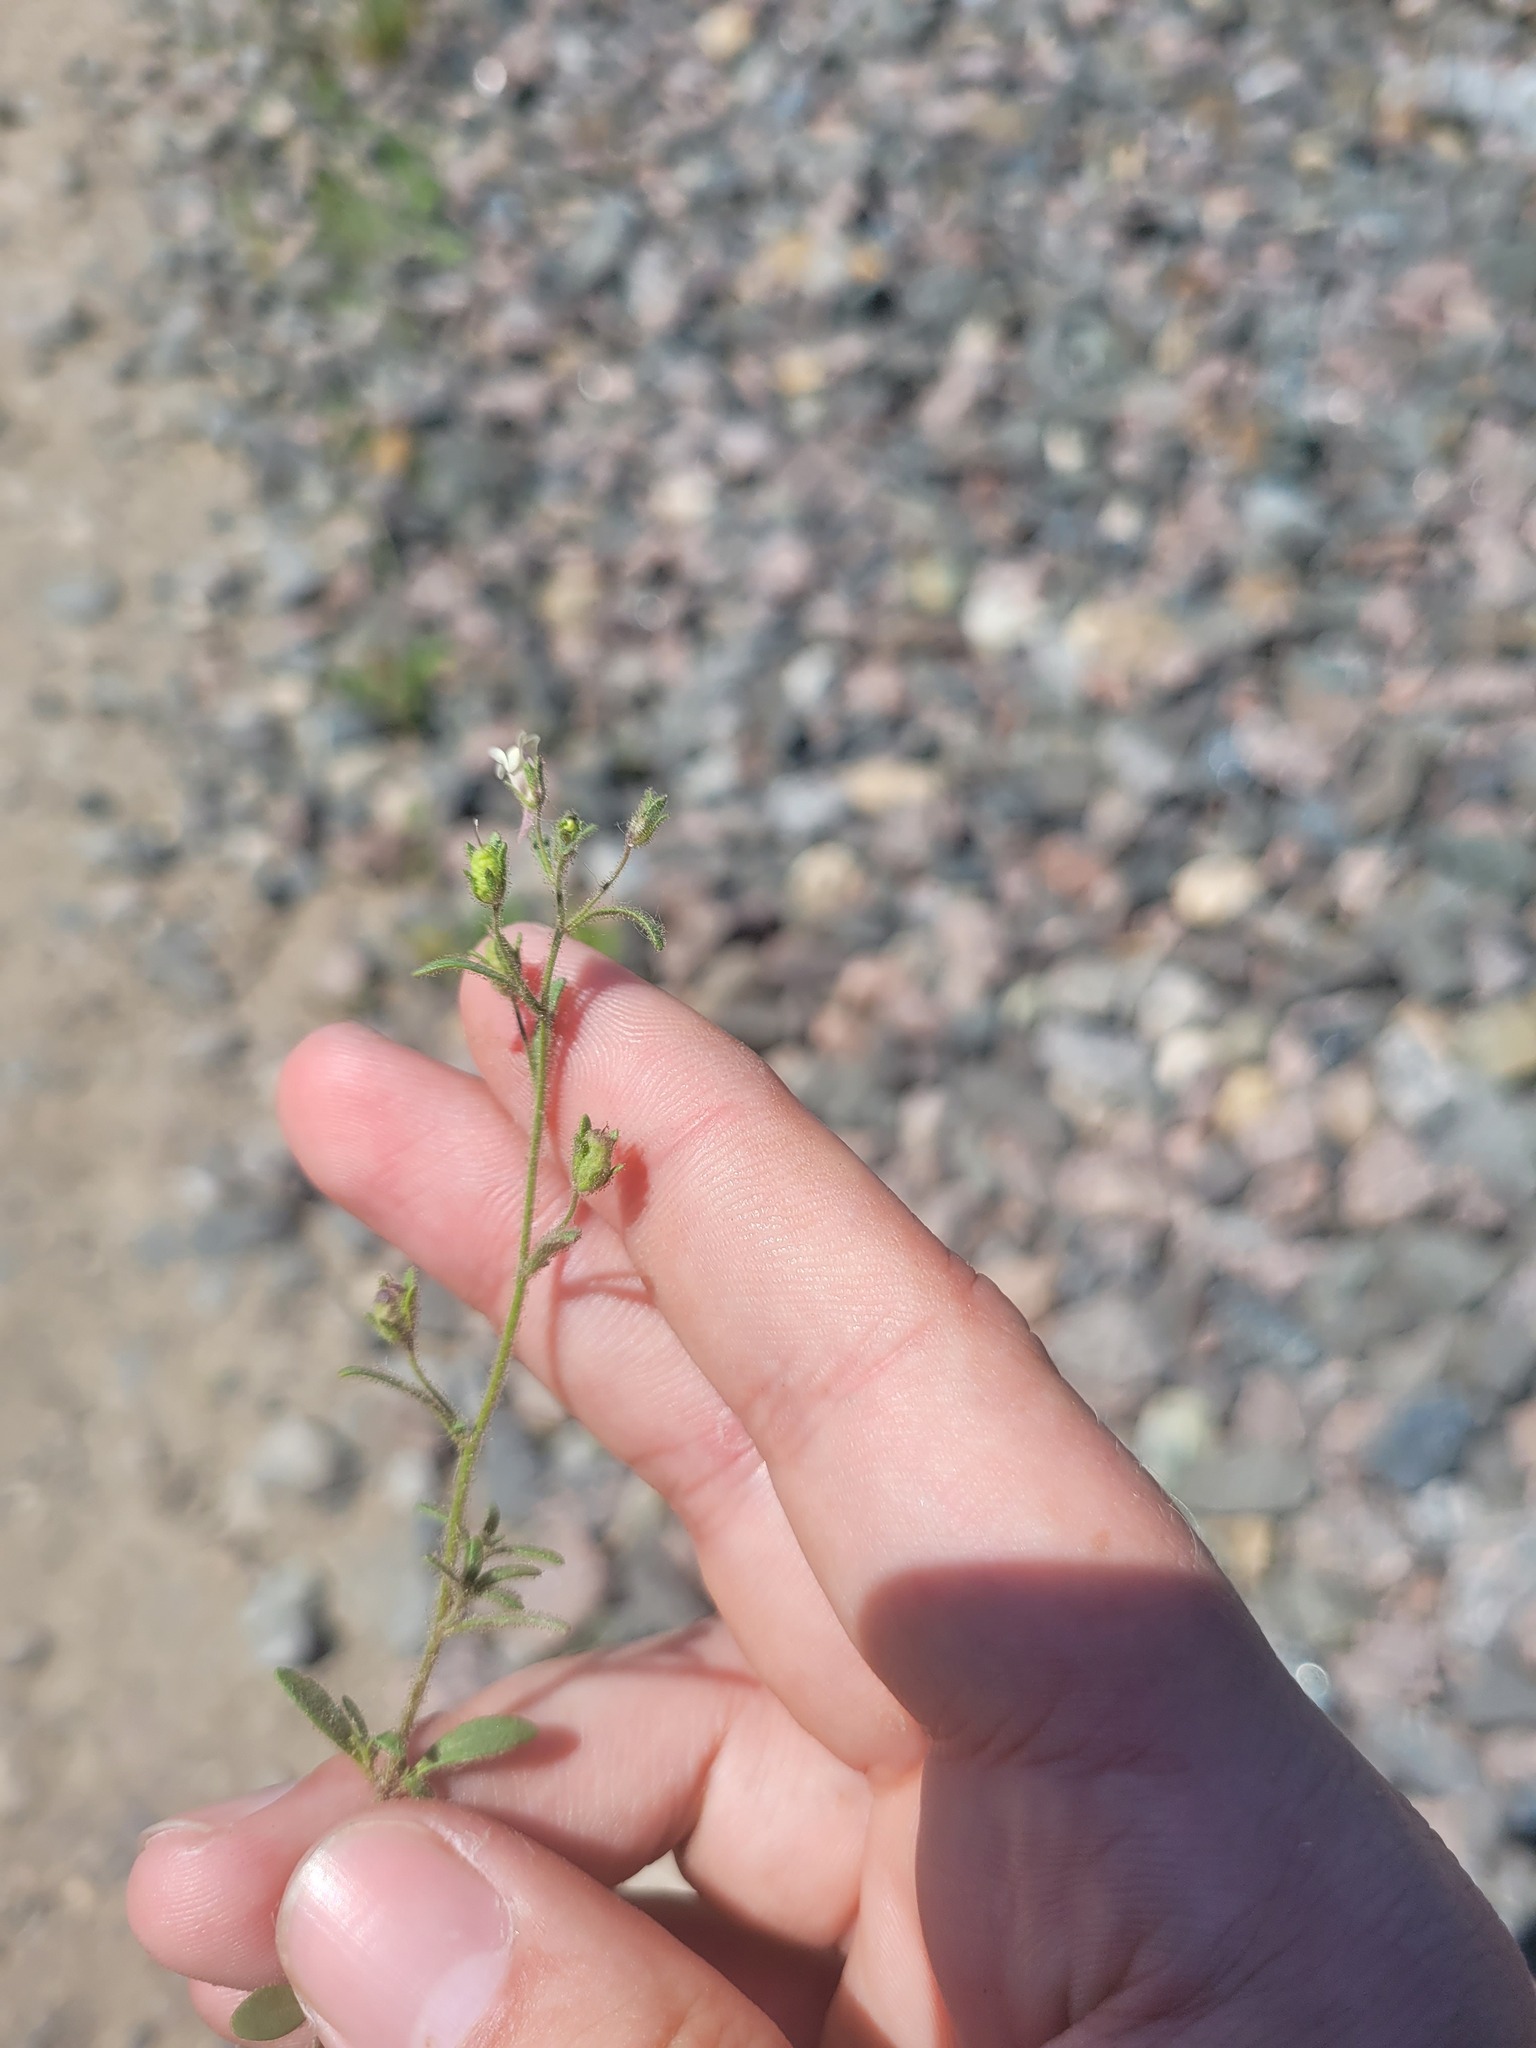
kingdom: Plantae
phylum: Tracheophyta
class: Magnoliopsida
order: Lamiales
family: Plantaginaceae
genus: Chaenorhinum
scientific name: Chaenorhinum minus
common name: Dwarf snapdragon
